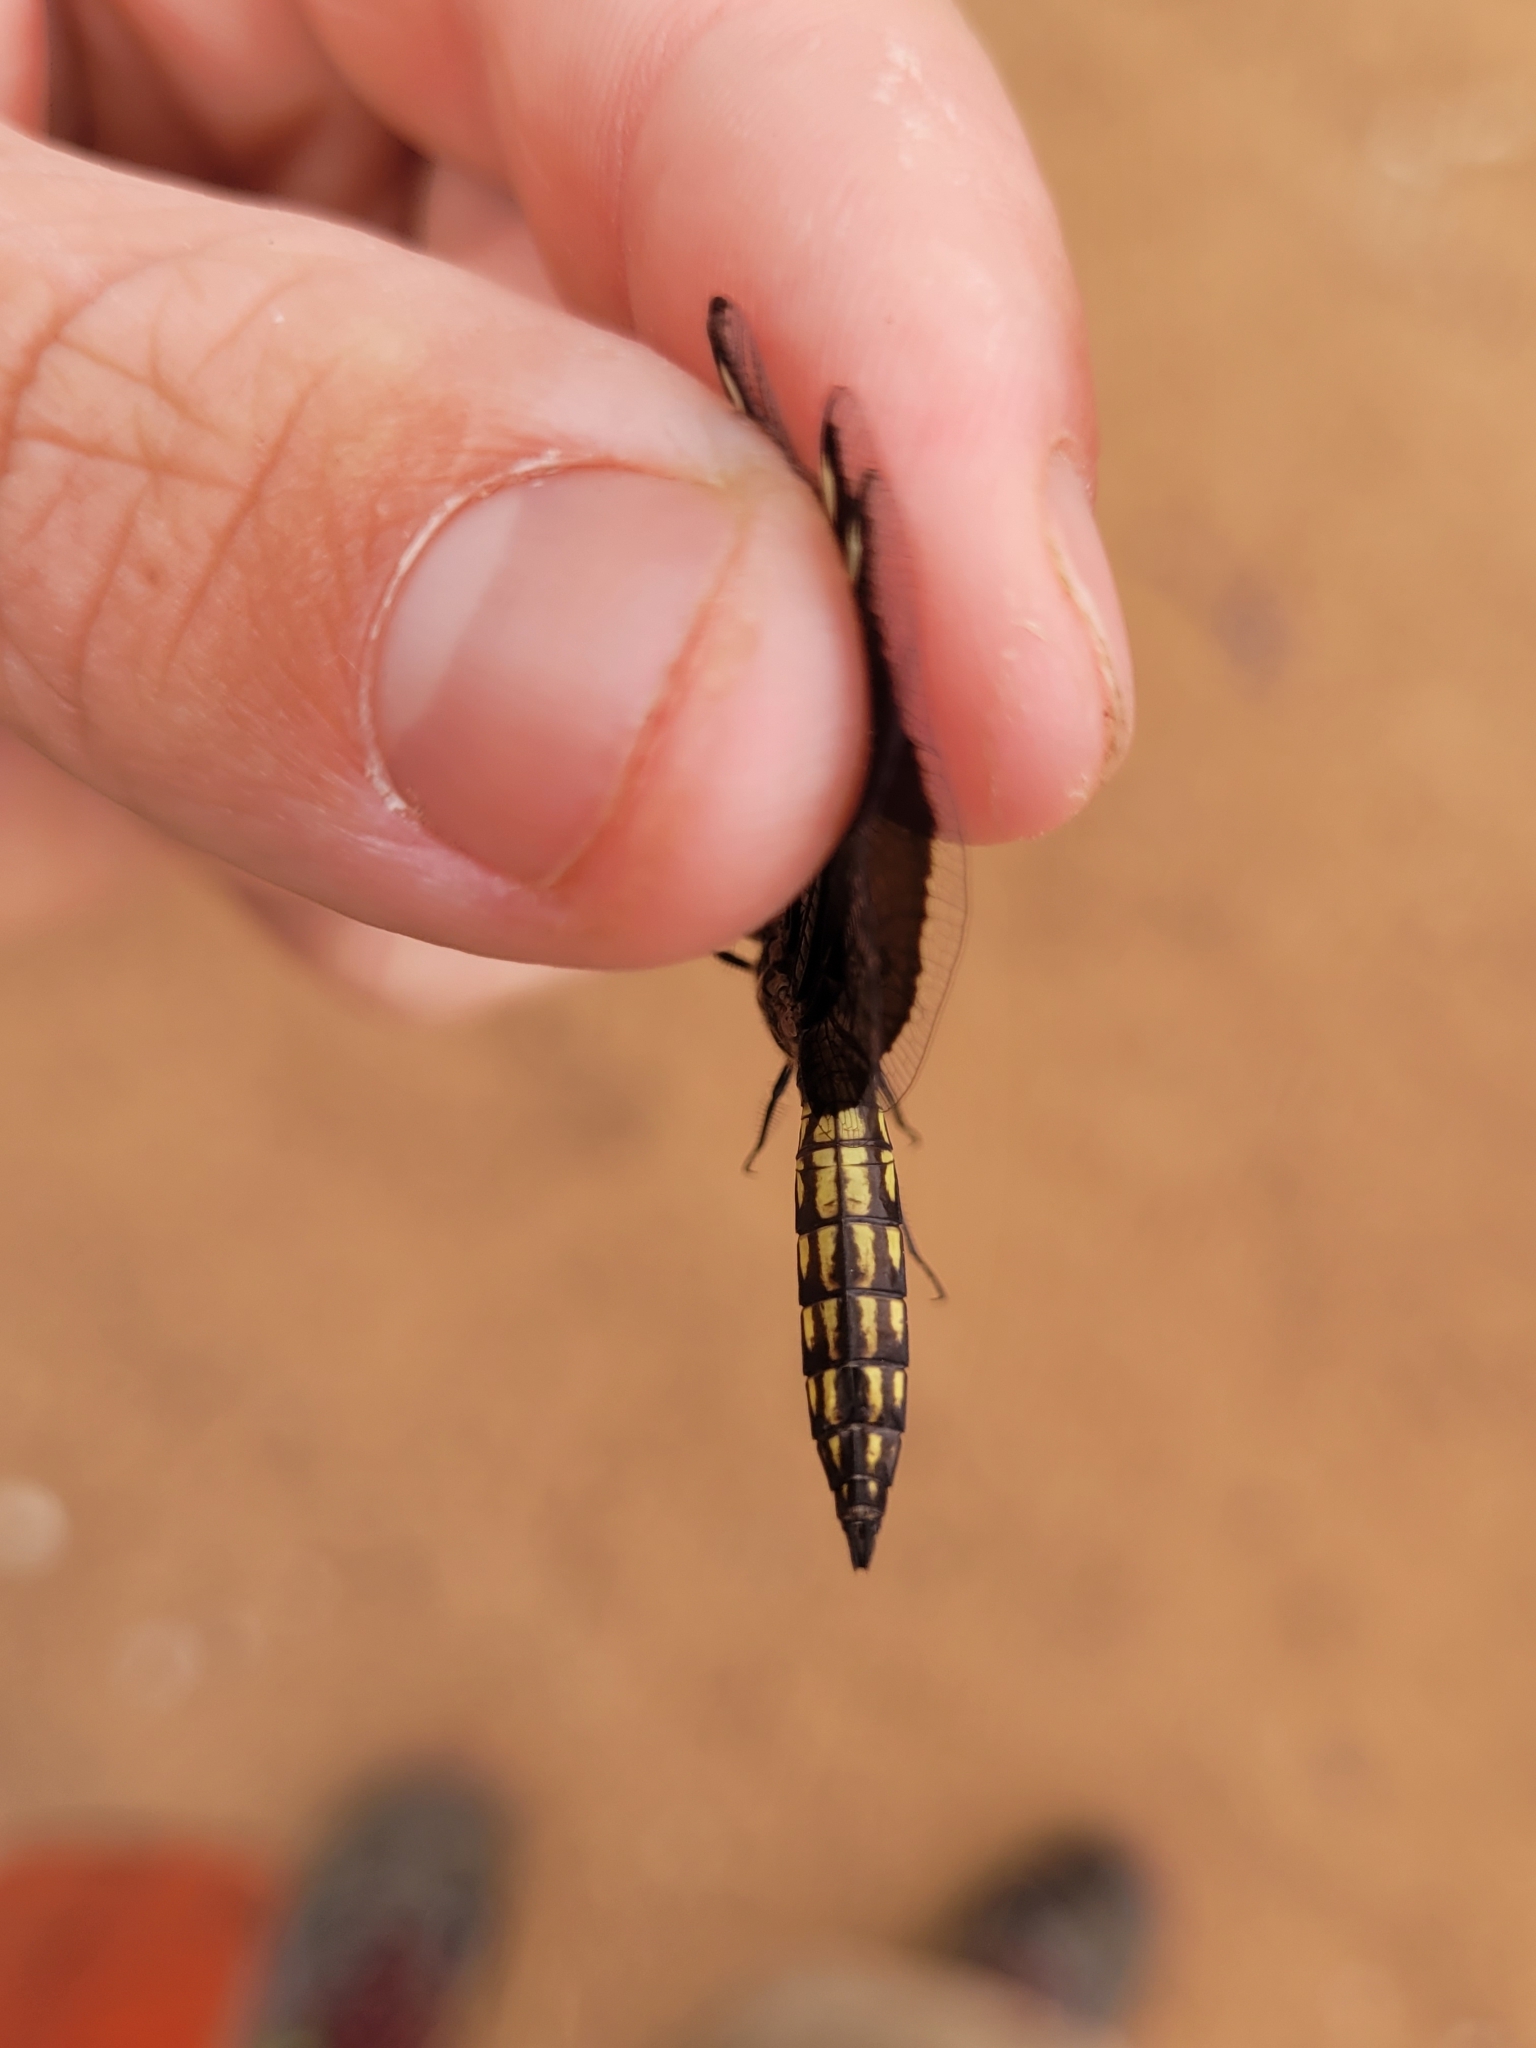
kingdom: Animalia
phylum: Arthropoda
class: Insecta
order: Odonata
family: Libellulidae
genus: Palpopleura
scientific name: Palpopleura lucia
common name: Lucia widow
